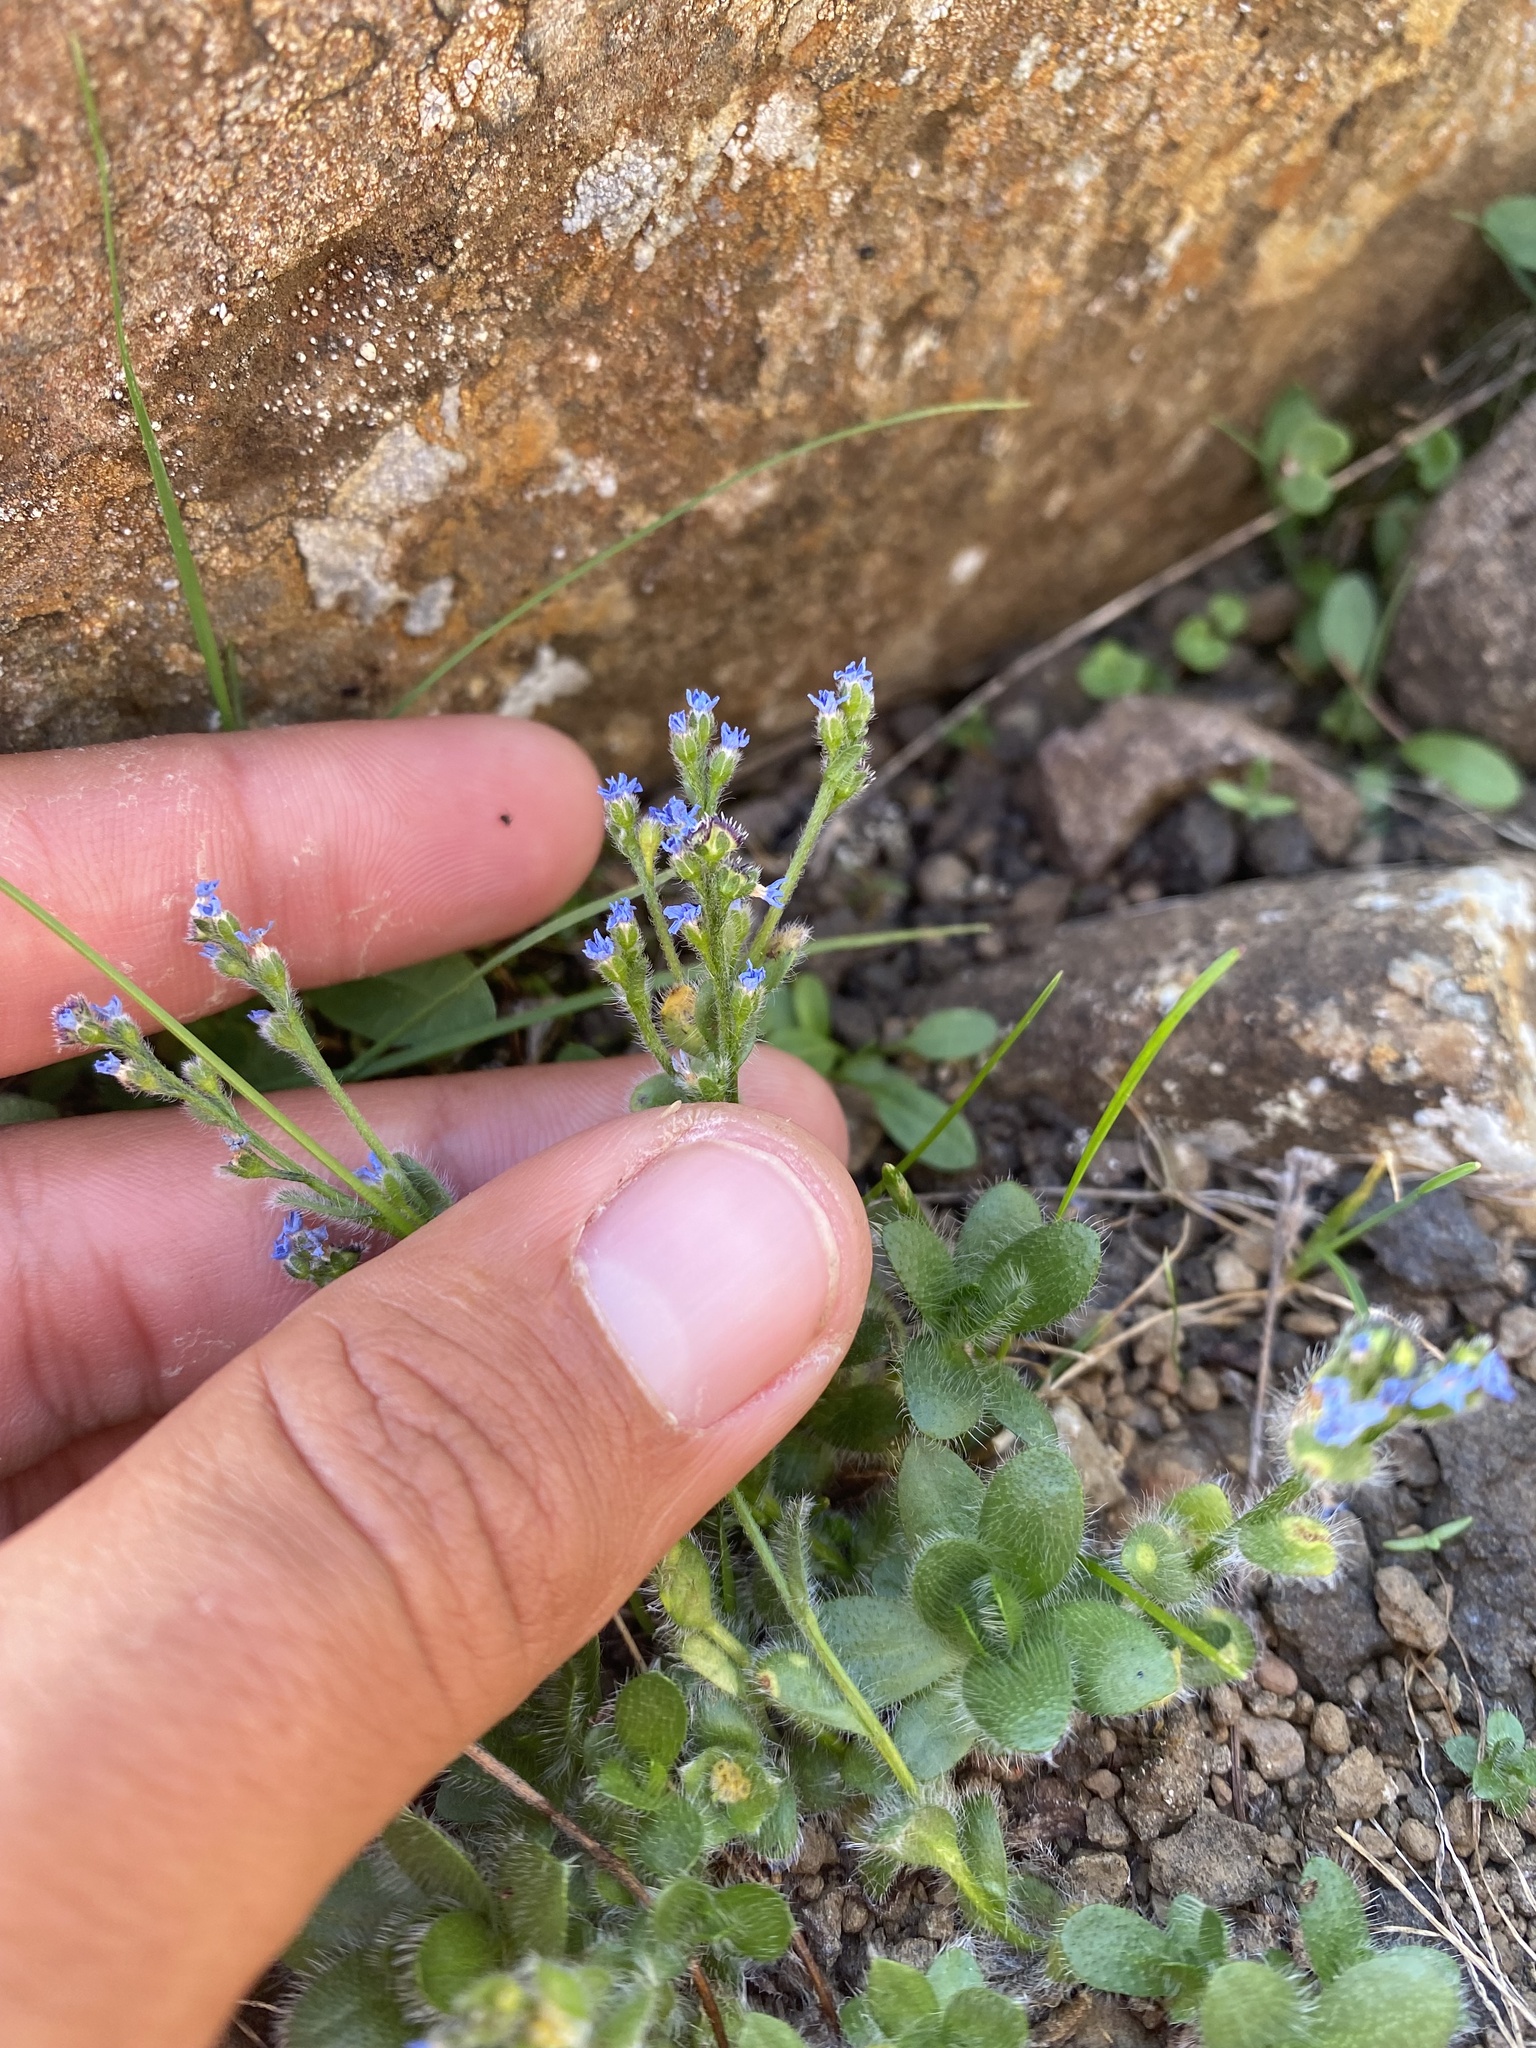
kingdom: Plantae
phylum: Tracheophyta
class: Magnoliopsida
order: Boraginales
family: Boraginaceae
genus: Eritrichium
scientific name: Eritrichium villosum
